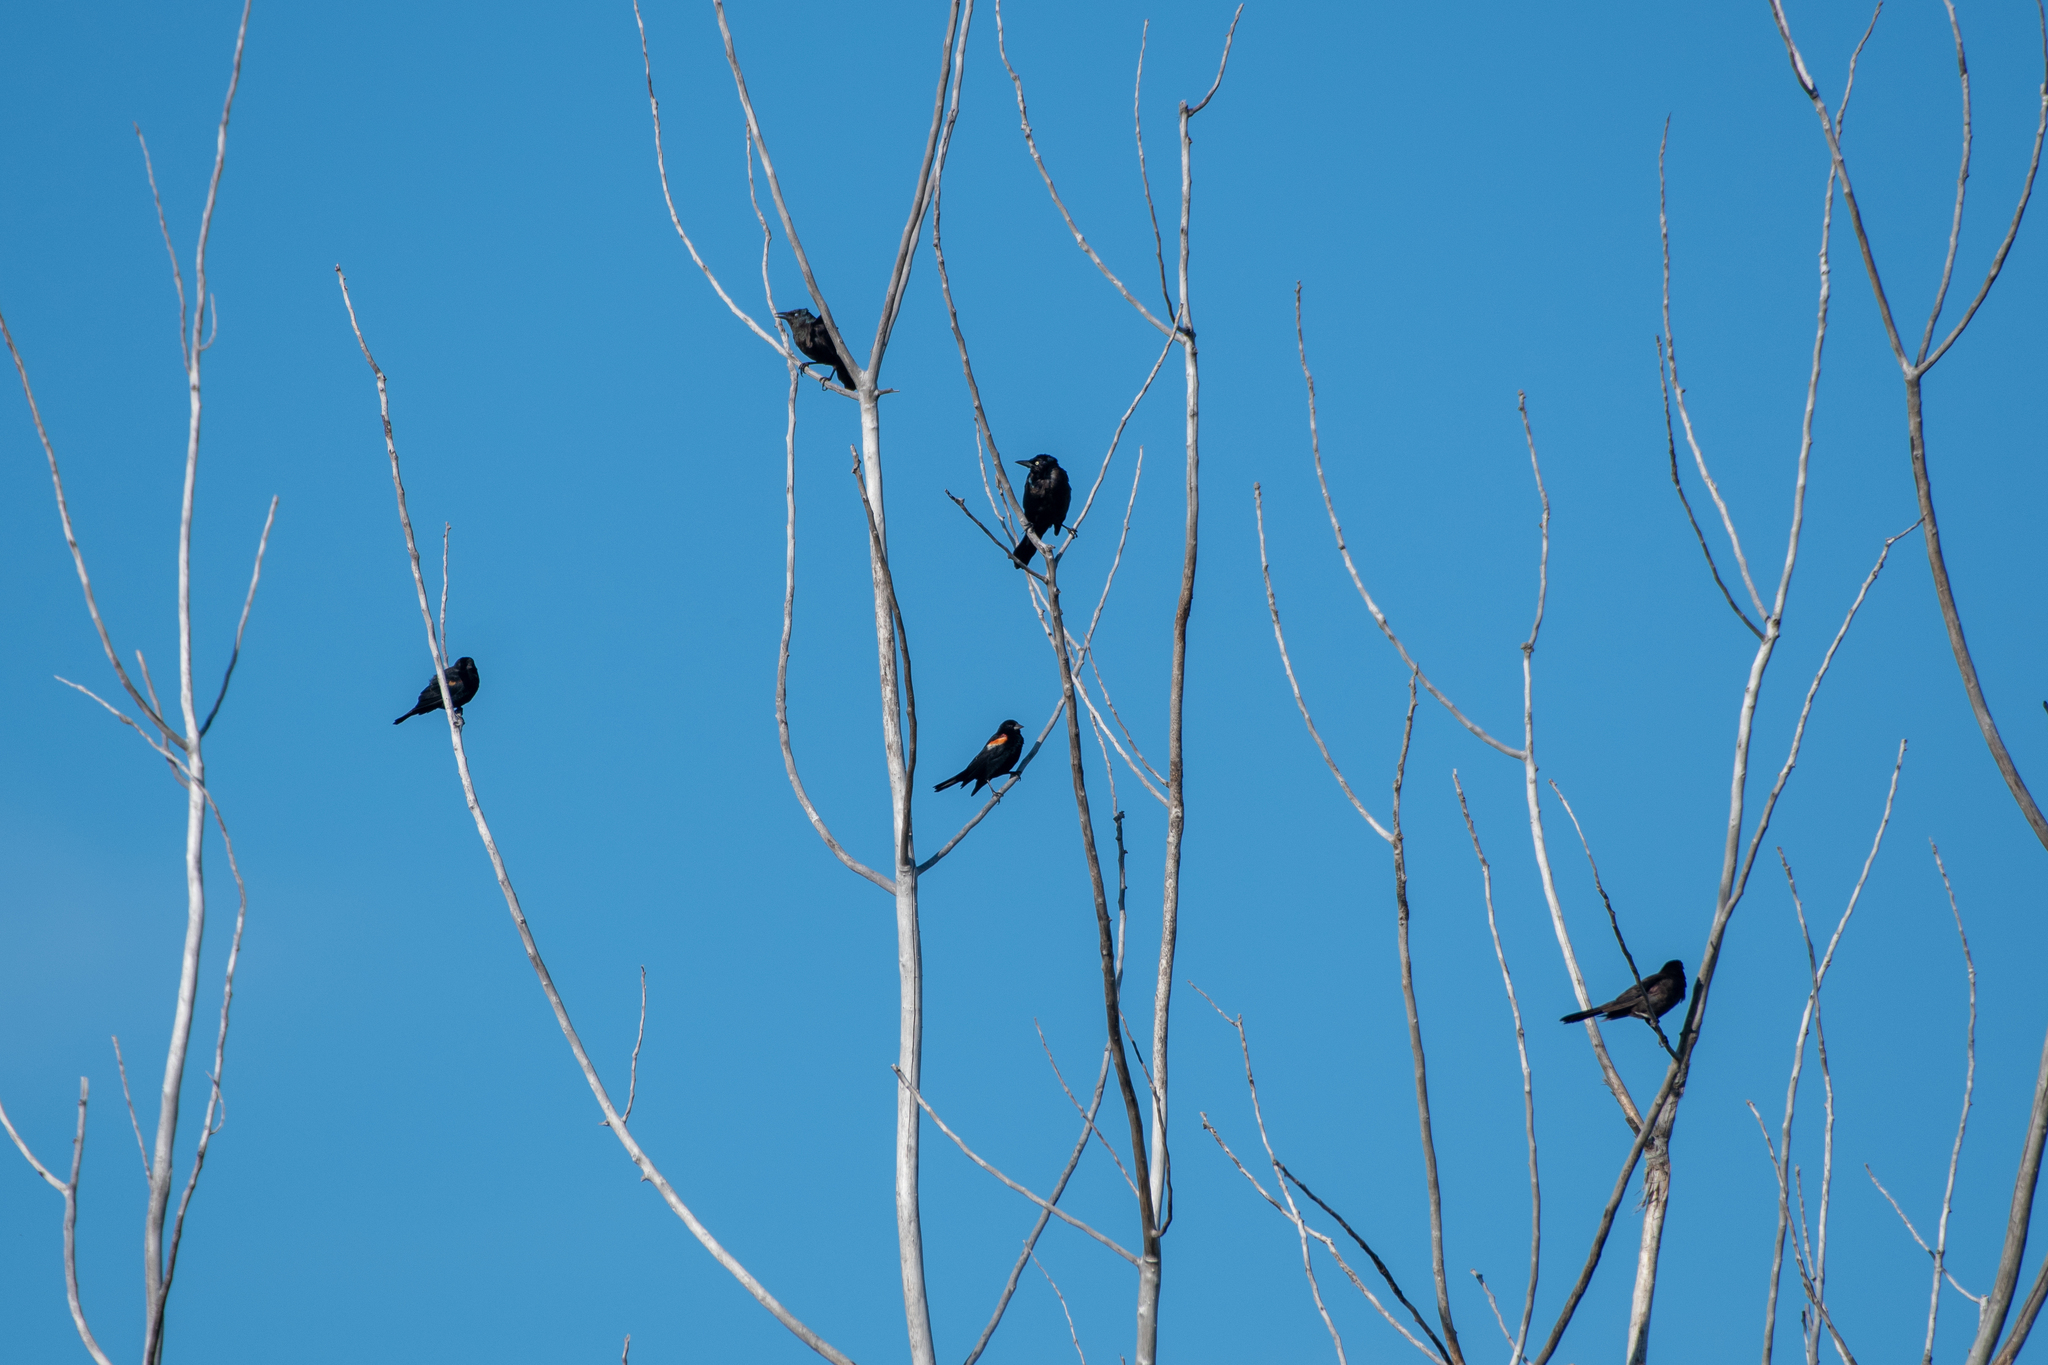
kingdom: Animalia
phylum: Chordata
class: Aves
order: Passeriformes
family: Icteridae
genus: Agelaius
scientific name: Agelaius phoeniceus
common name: Red-winged blackbird
